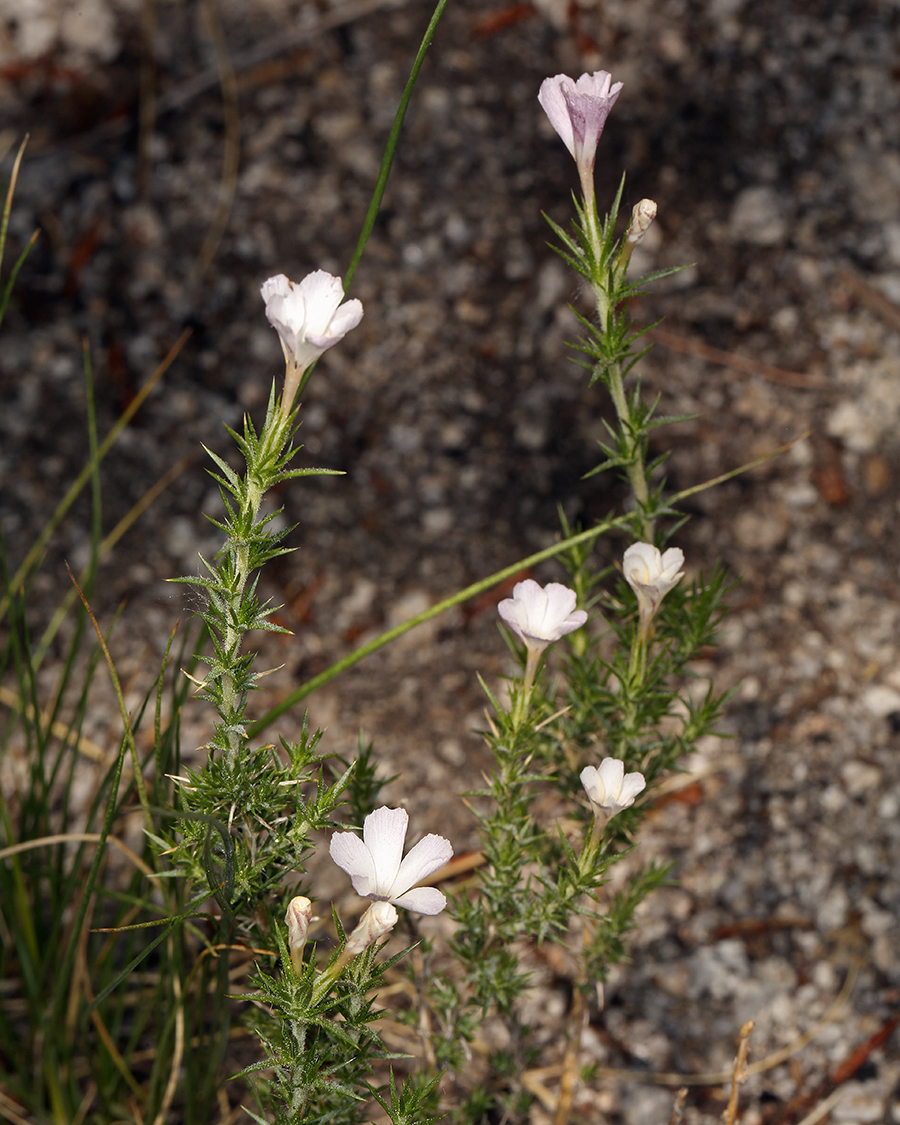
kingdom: Plantae
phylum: Tracheophyta
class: Magnoliopsida
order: Ericales
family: Polemoniaceae
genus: Linanthus
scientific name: Linanthus pungens
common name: Granite prickly phlox
